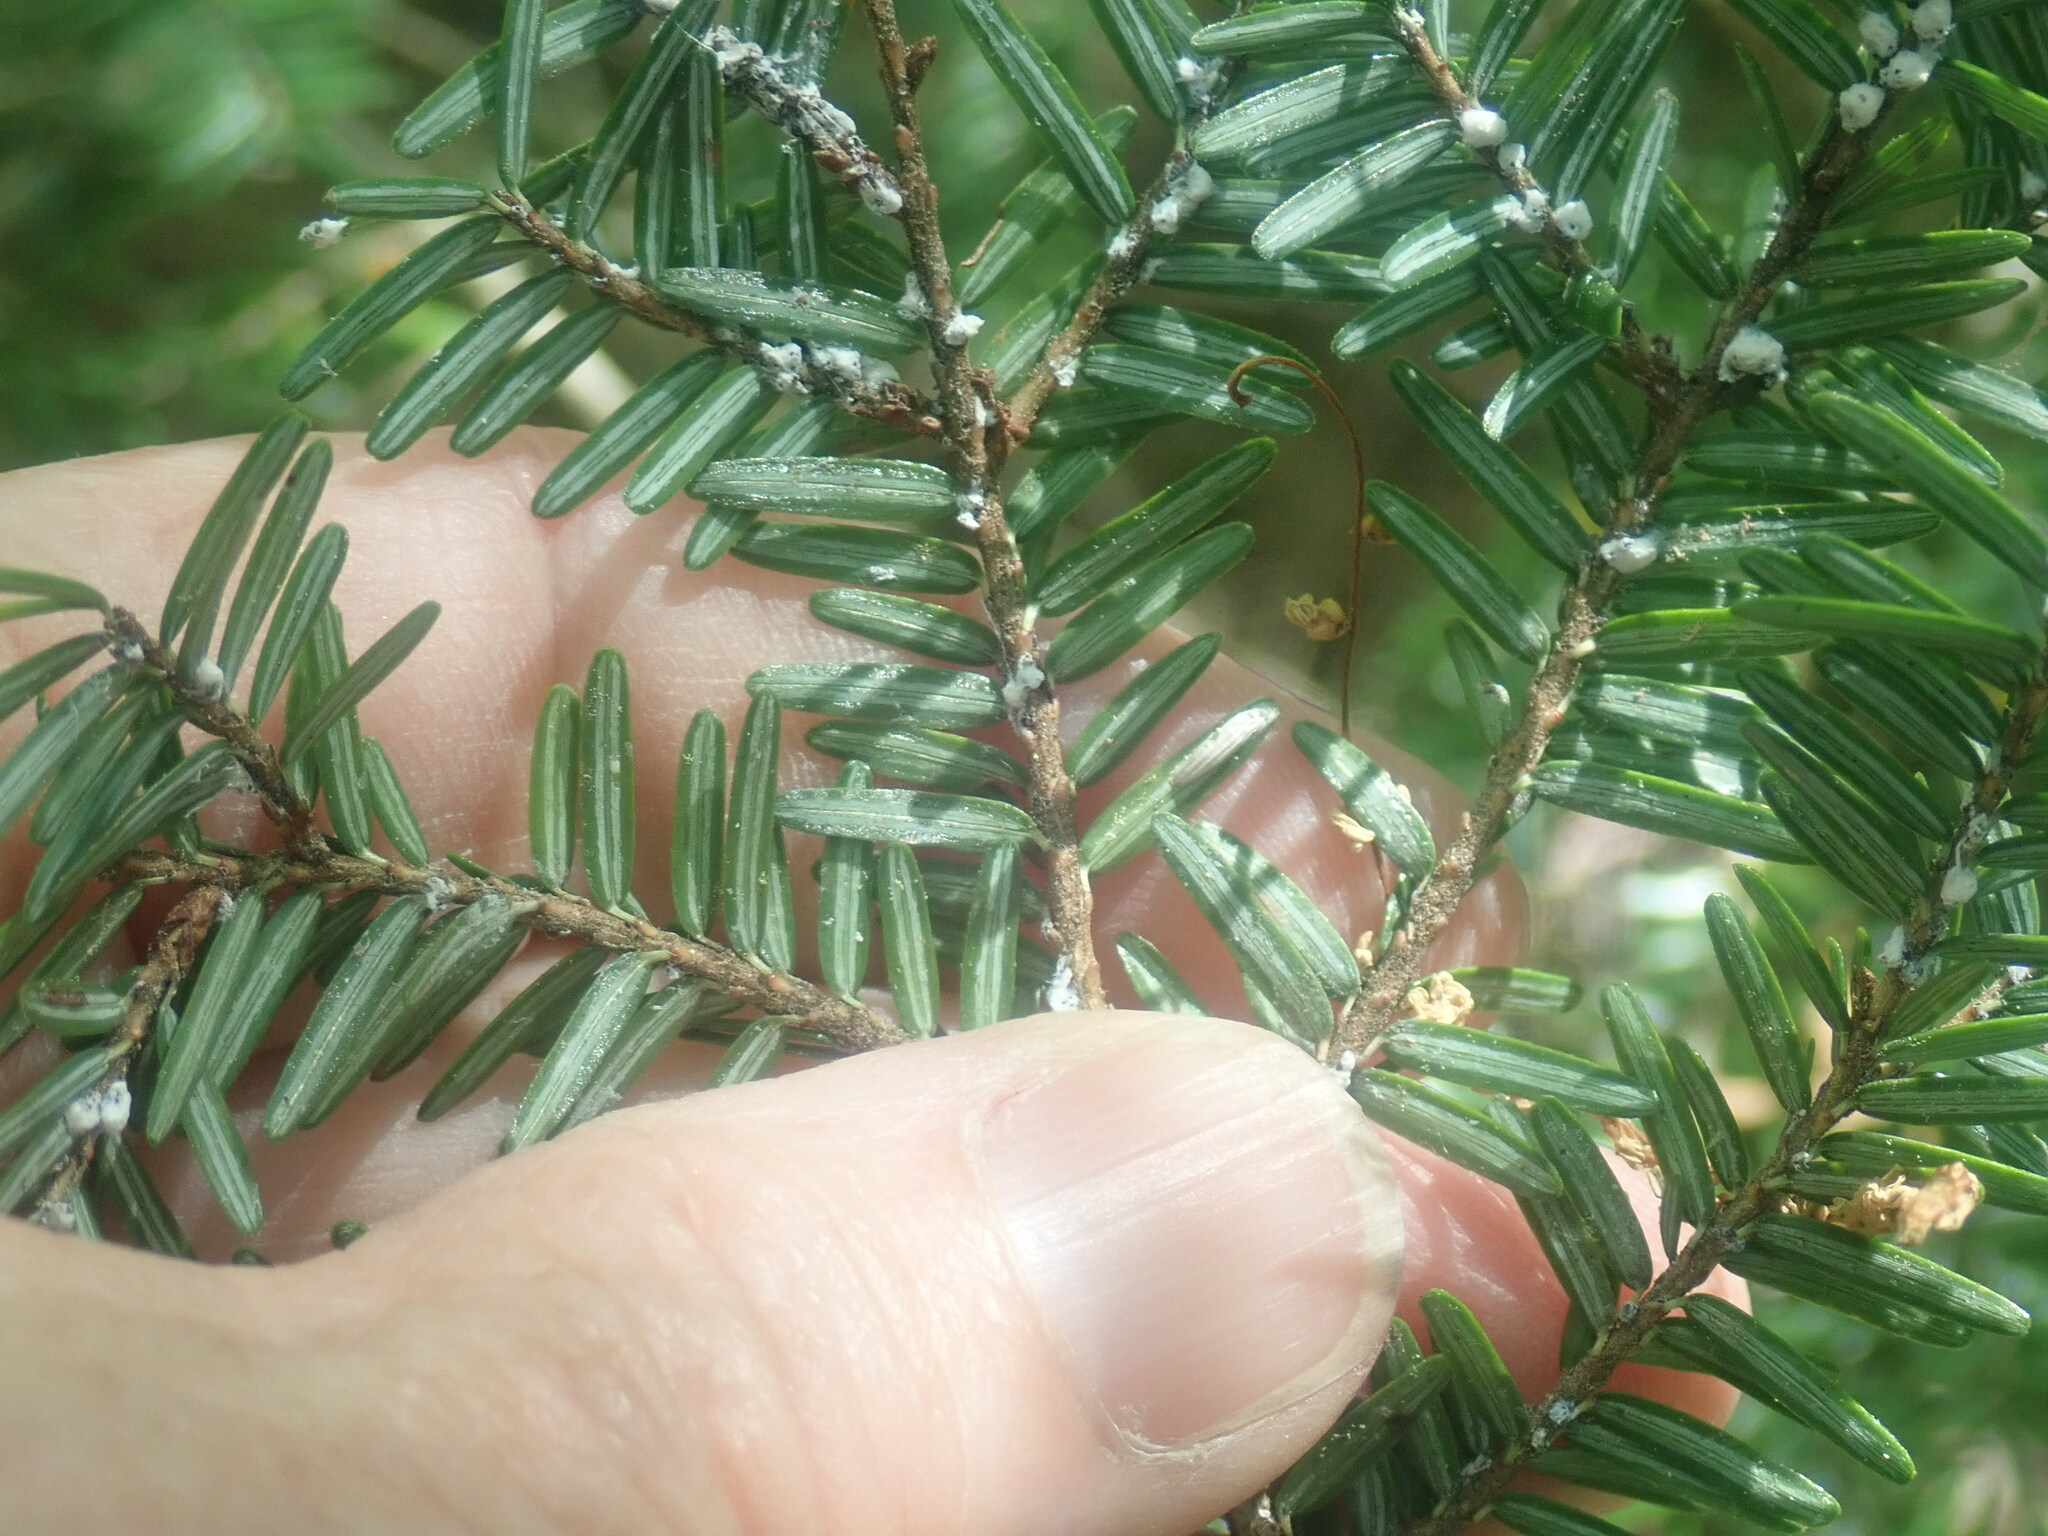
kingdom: Plantae
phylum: Tracheophyta
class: Pinopsida
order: Pinales
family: Pinaceae
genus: Tsuga
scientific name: Tsuga canadensis
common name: Eastern hemlock
